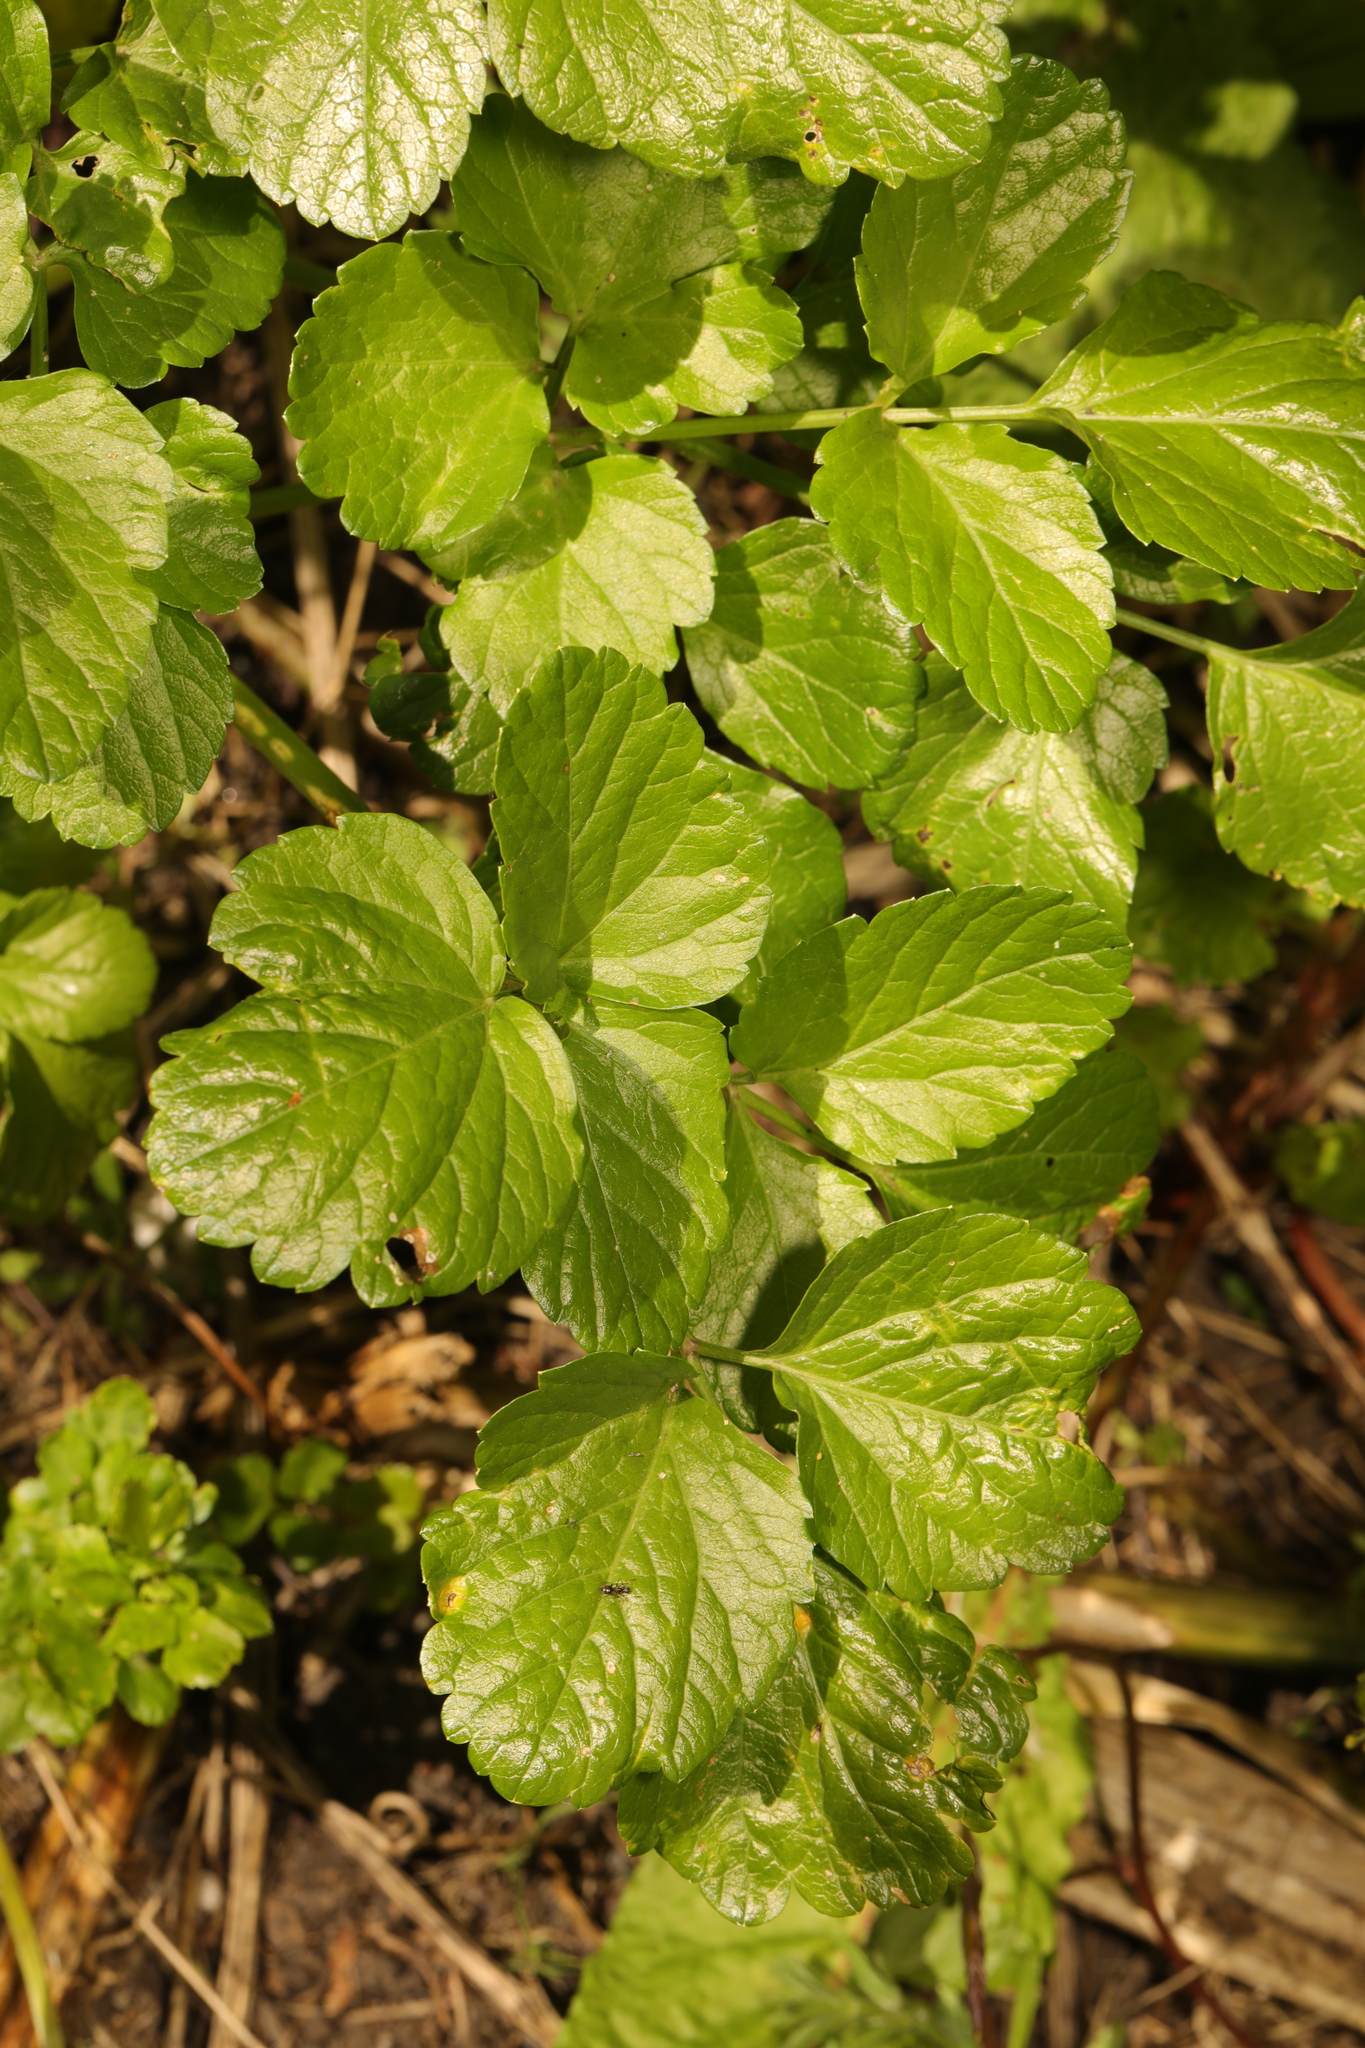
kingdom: Plantae
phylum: Tracheophyta
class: Magnoliopsida
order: Apiales
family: Apiaceae
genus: Smyrnium
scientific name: Smyrnium olusatrum
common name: Alexanders
